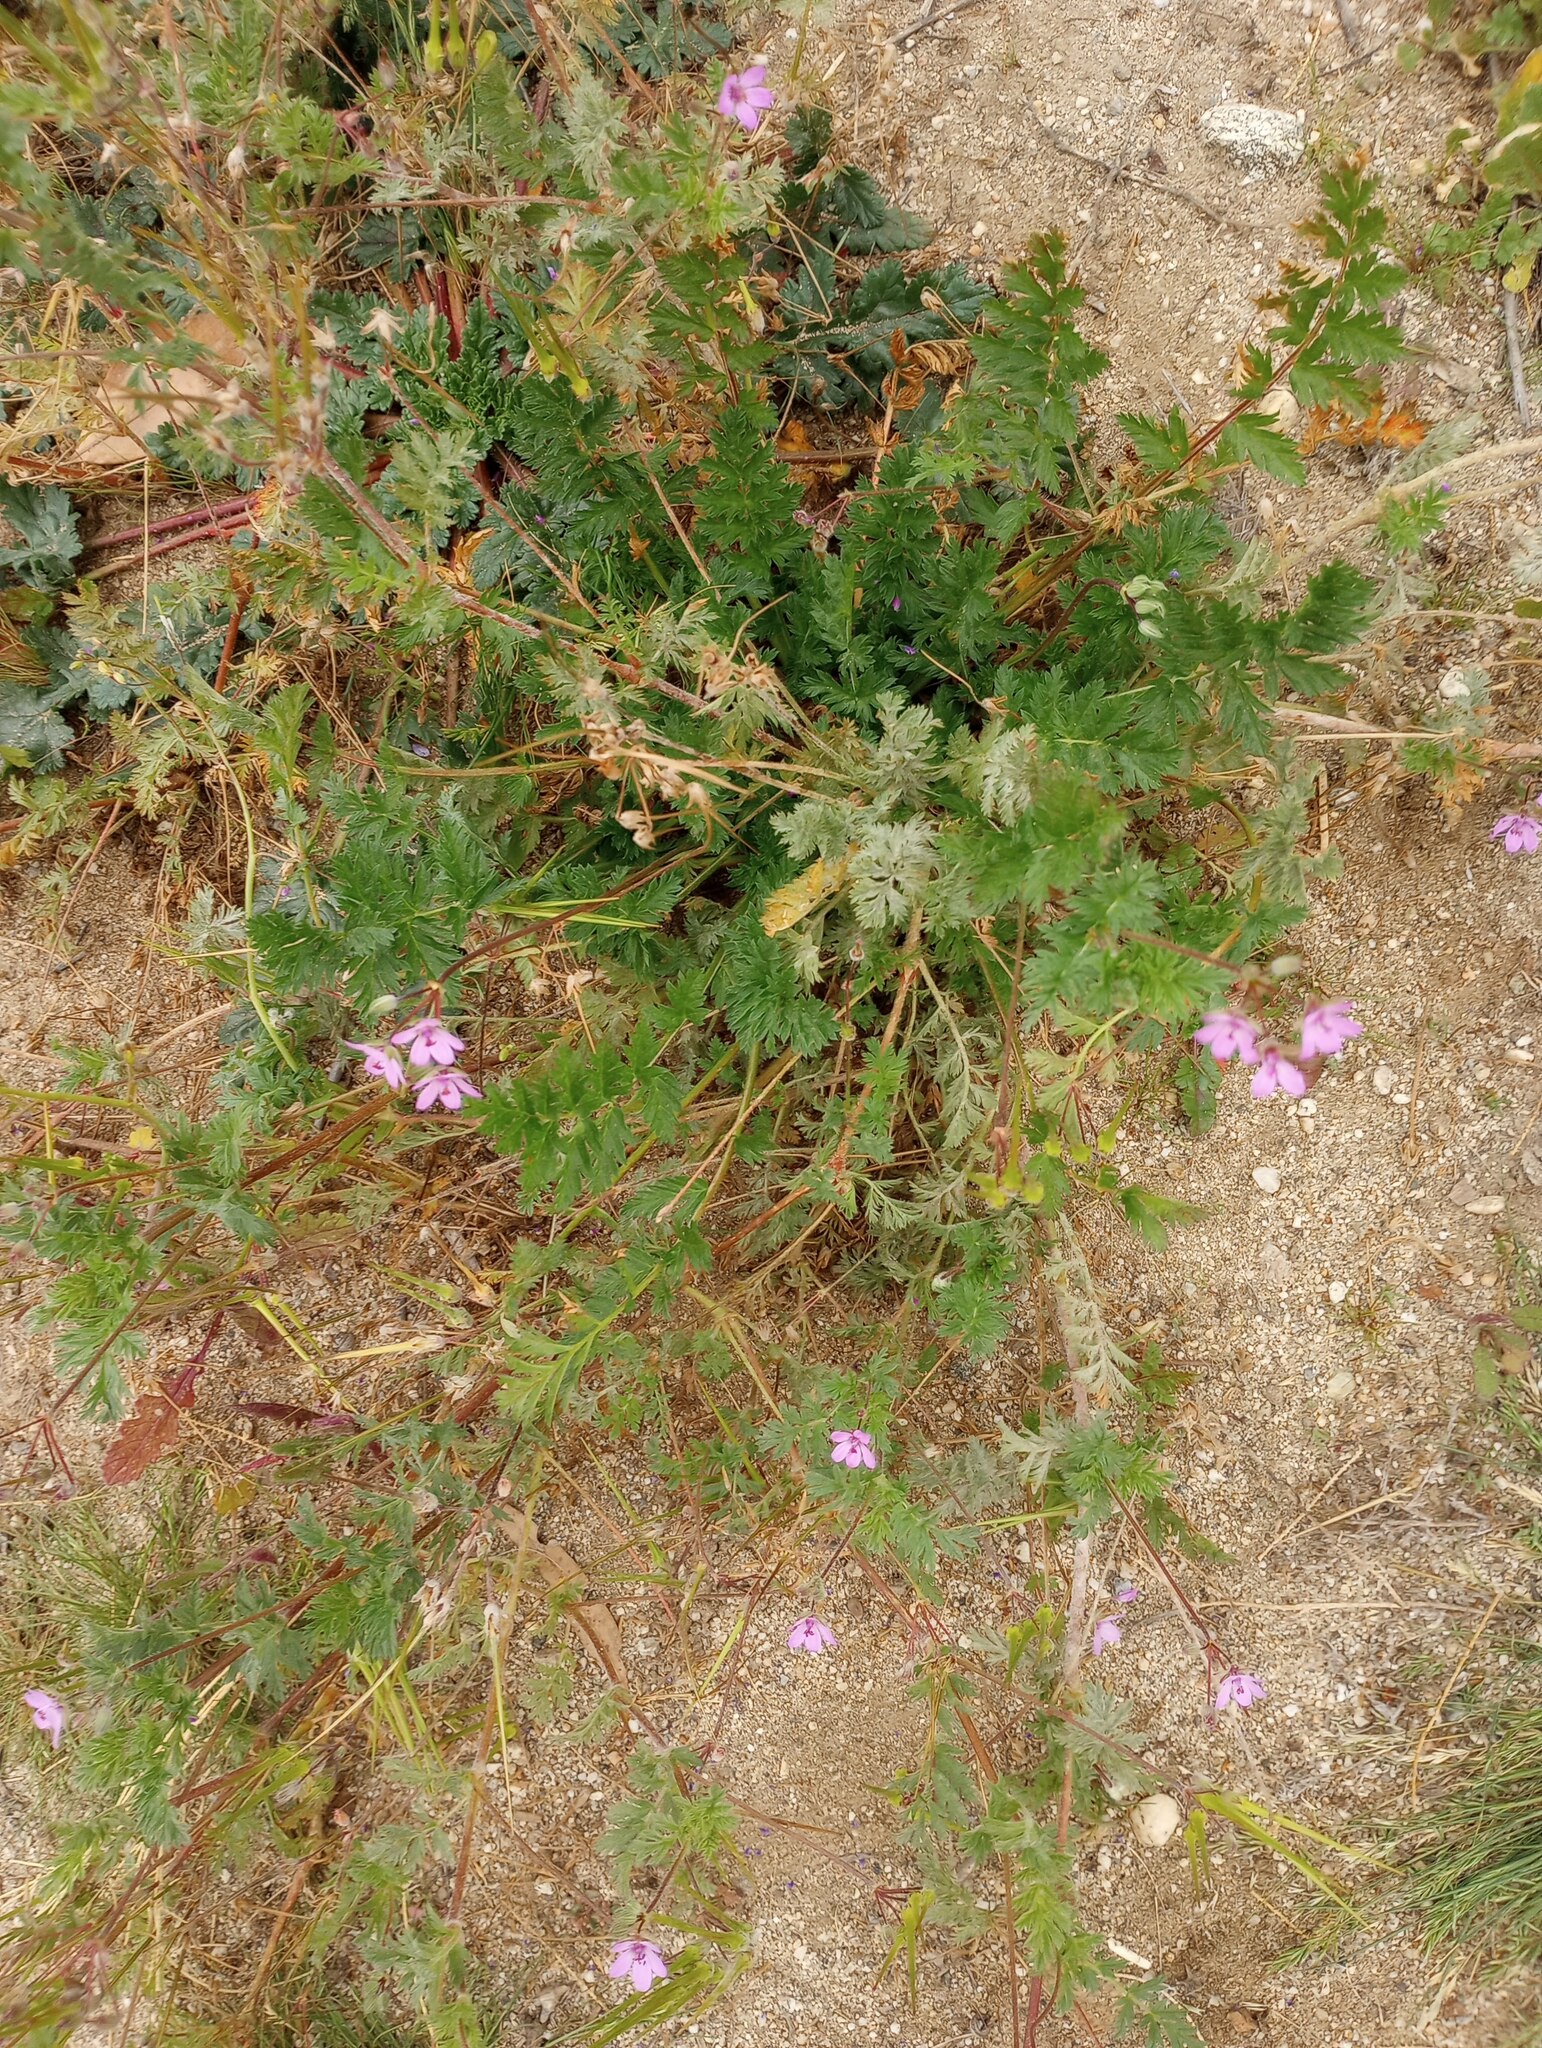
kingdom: Plantae
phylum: Tracheophyta
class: Magnoliopsida
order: Geraniales
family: Geraniaceae
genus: Erodium
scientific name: Erodium cicutarium
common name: Common stork's-bill
